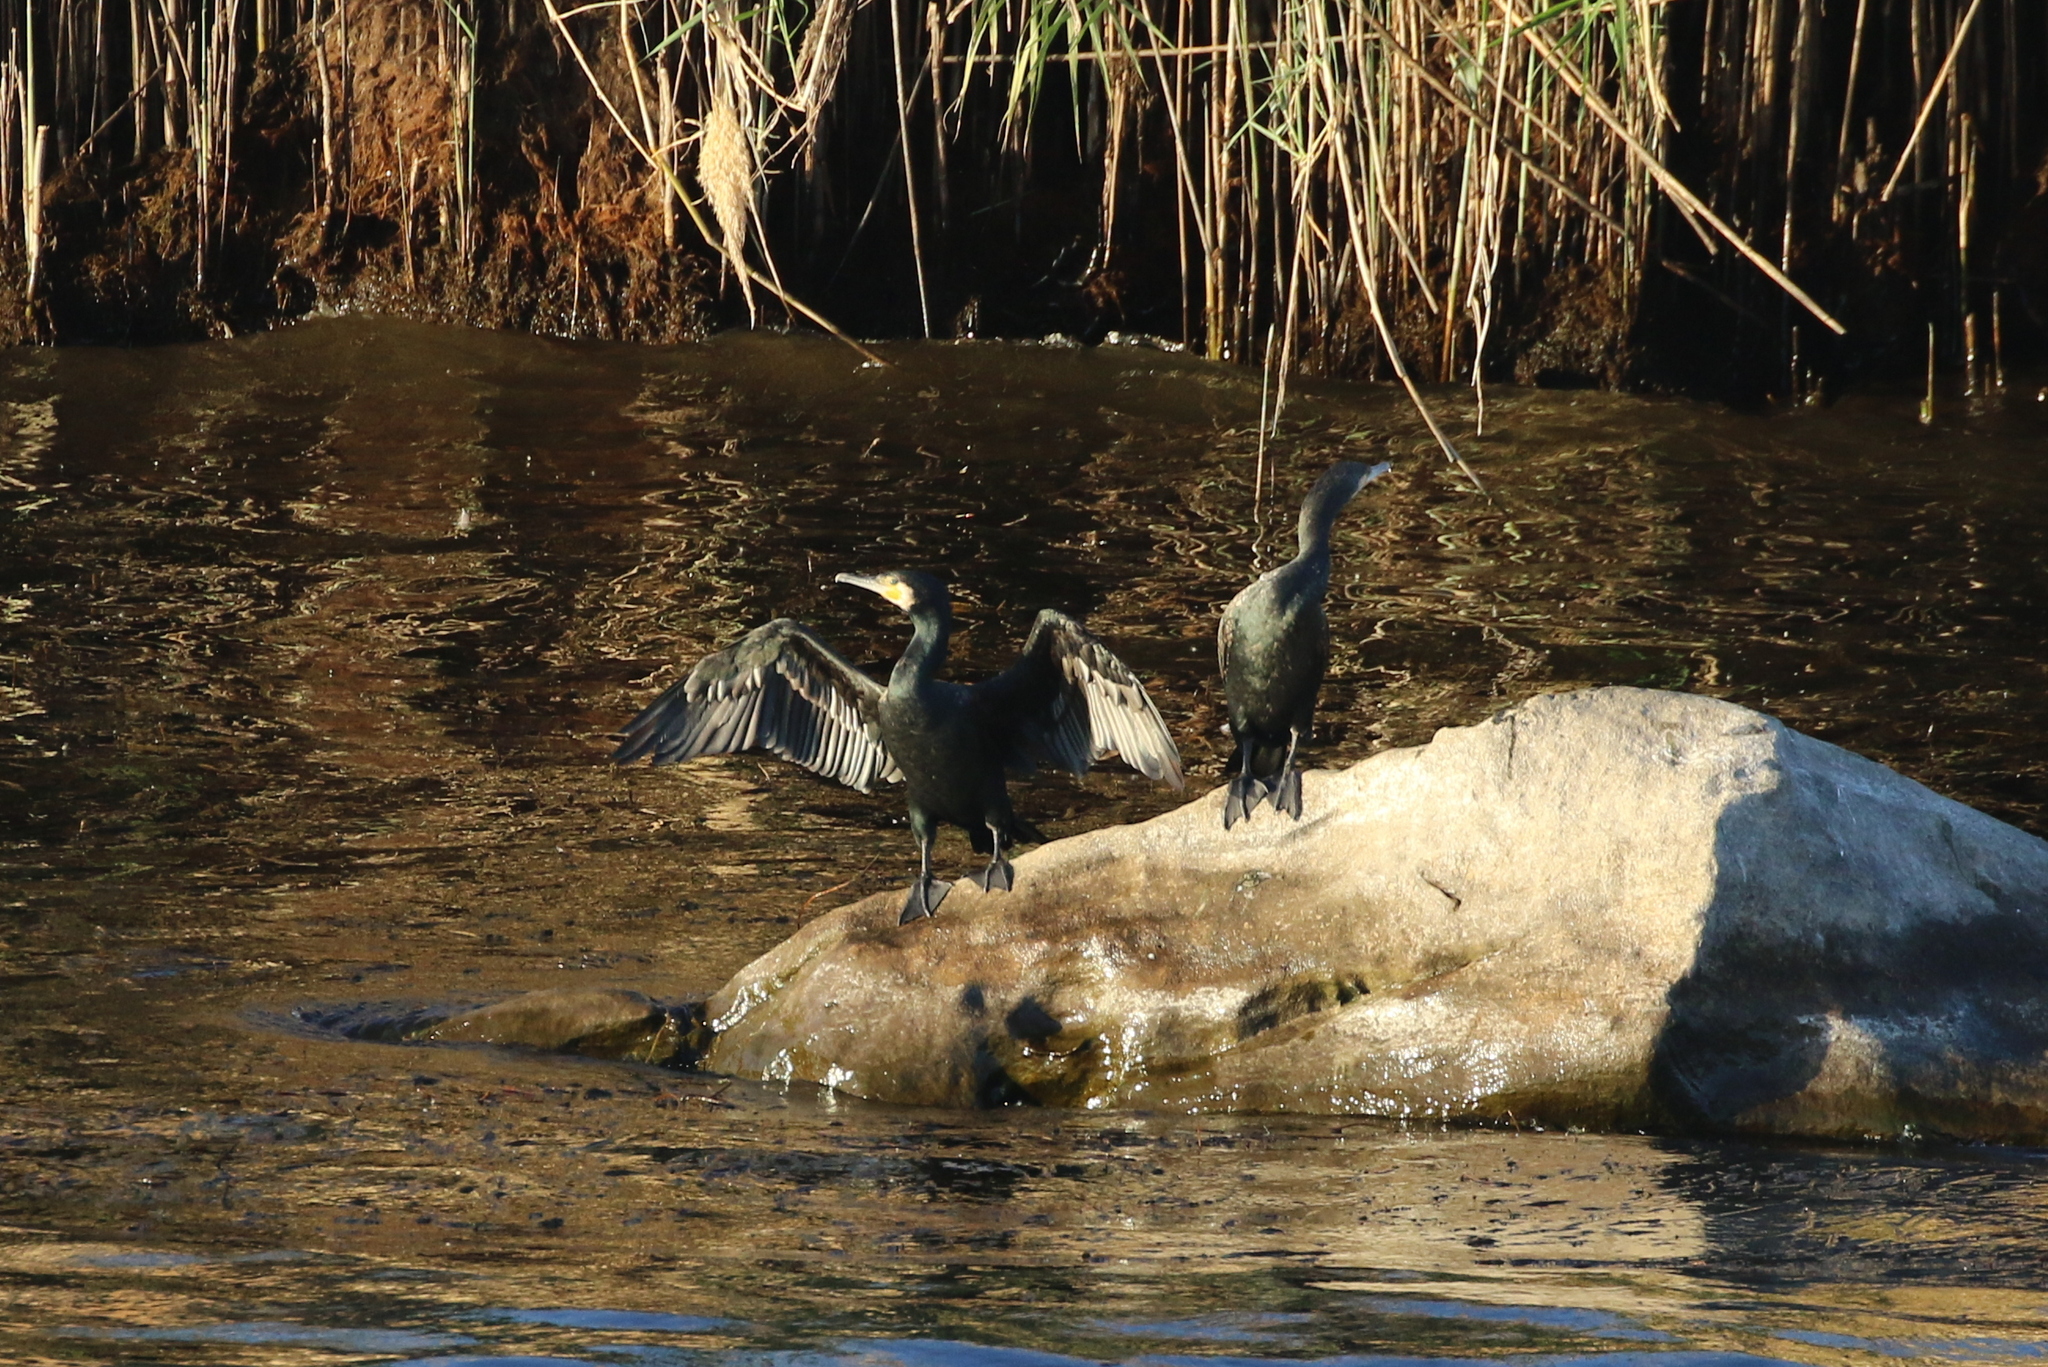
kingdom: Animalia
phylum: Chordata
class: Aves
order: Suliformes
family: Phalacrocoracidae
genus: Phalacrocorax
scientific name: Phalacrocorax carbo
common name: Great cormorant
